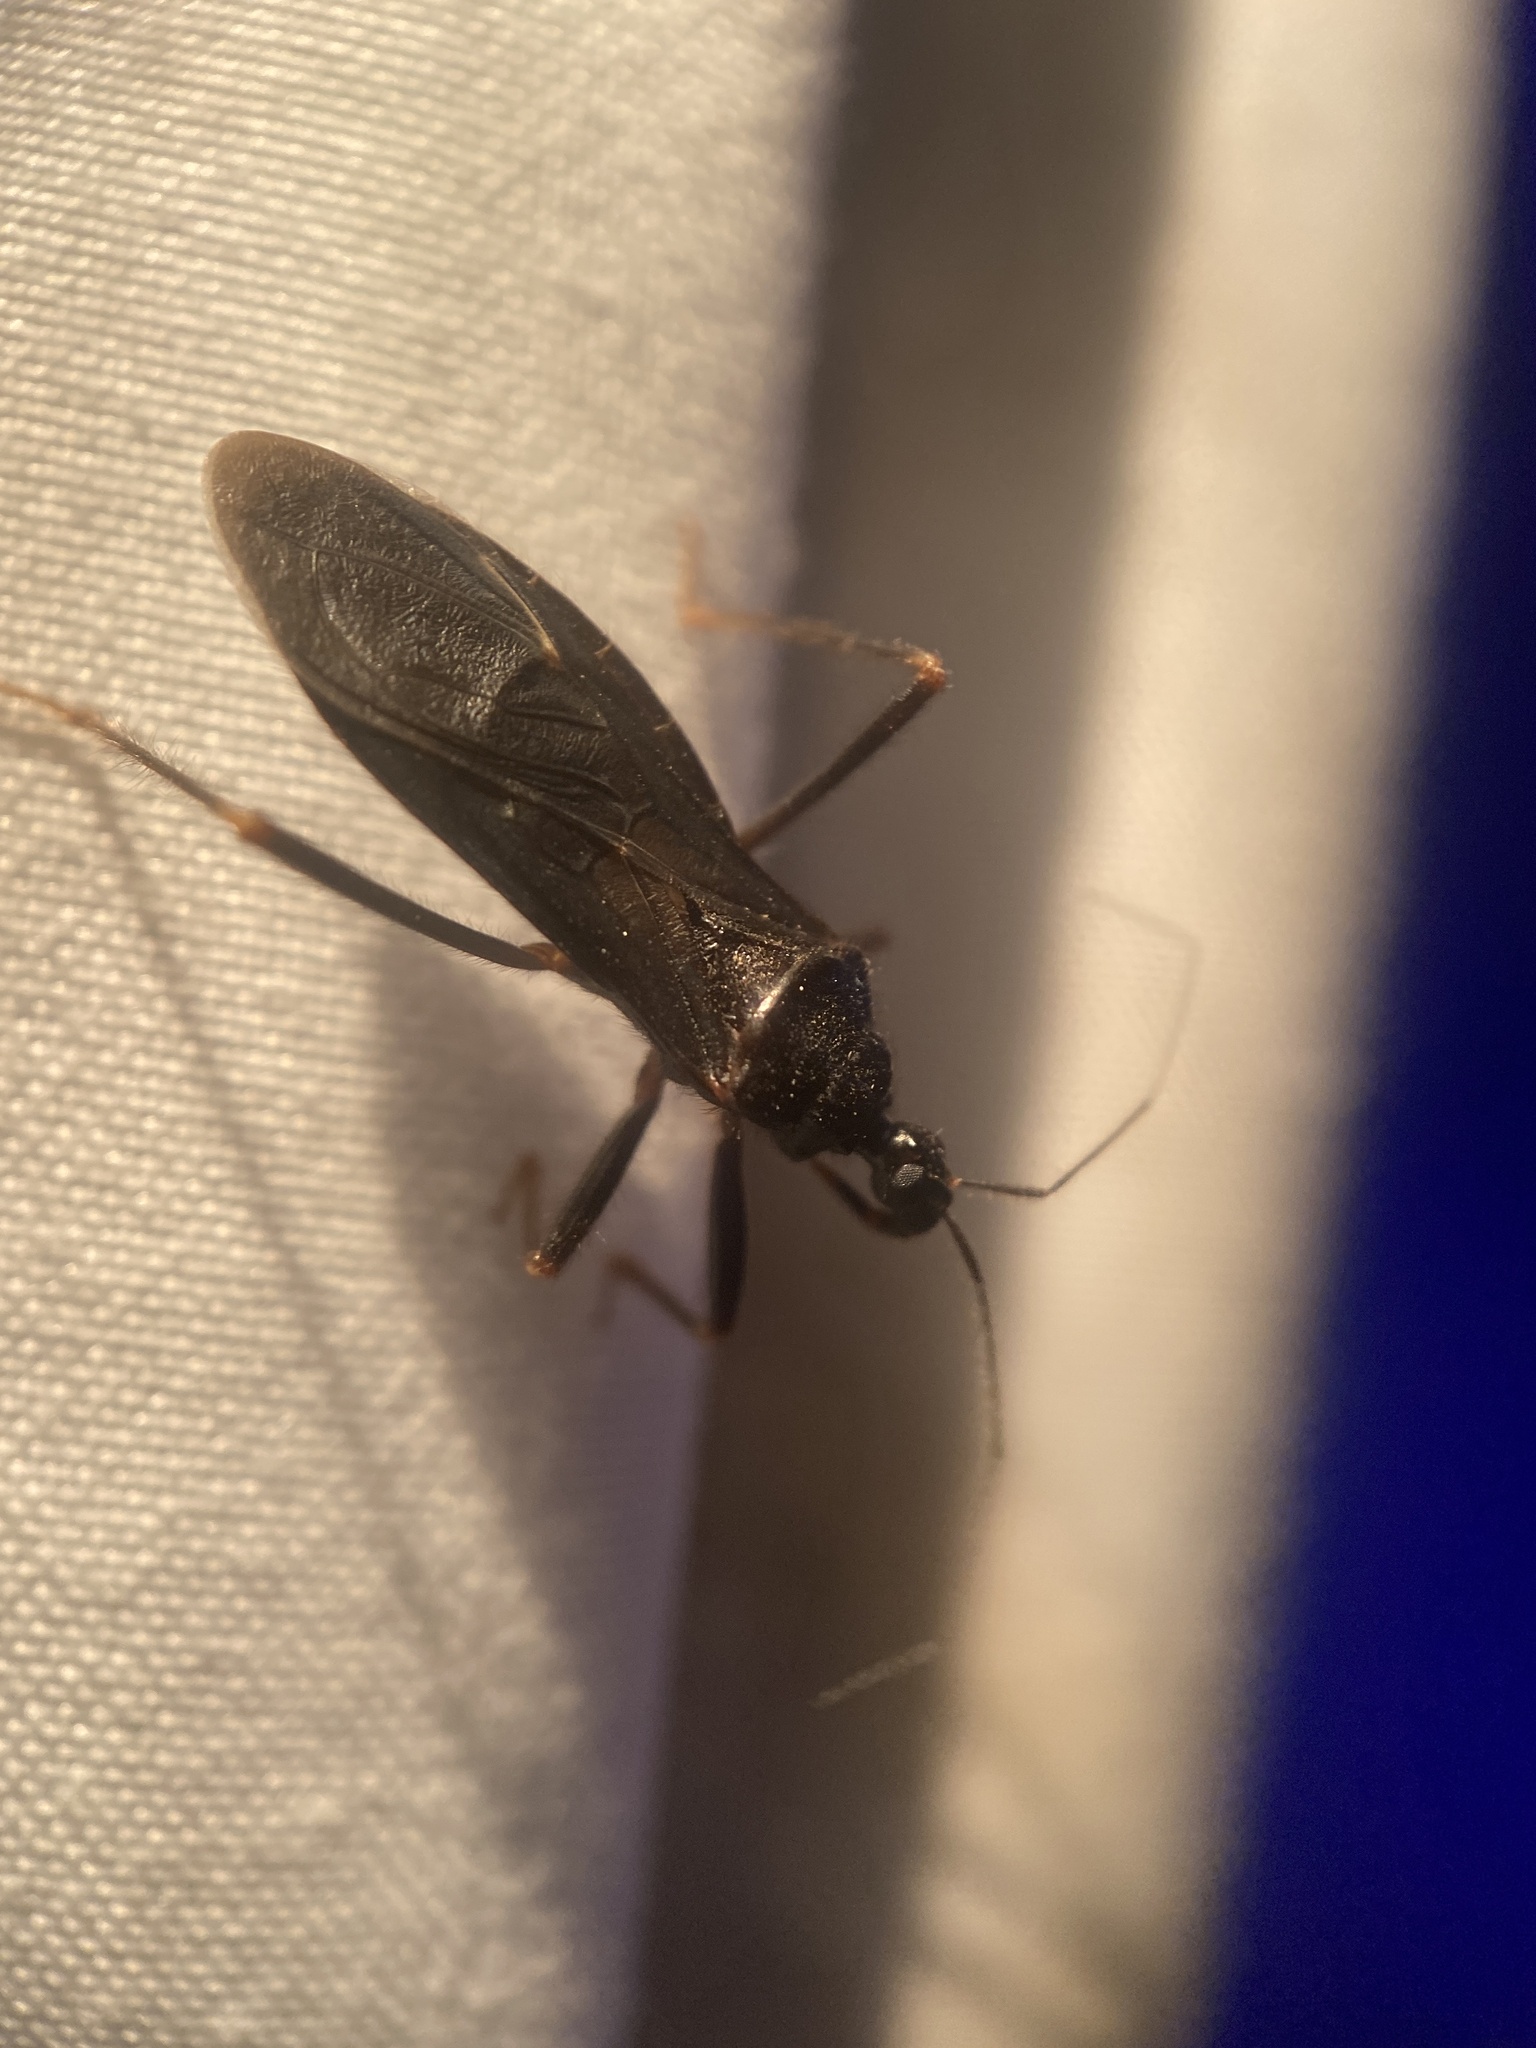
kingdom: Animalia
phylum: Arthropoda
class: Insecta
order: Hemiptera
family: Reduviidae
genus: Reduvius
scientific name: Reduvius personatus
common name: Masked hunter
